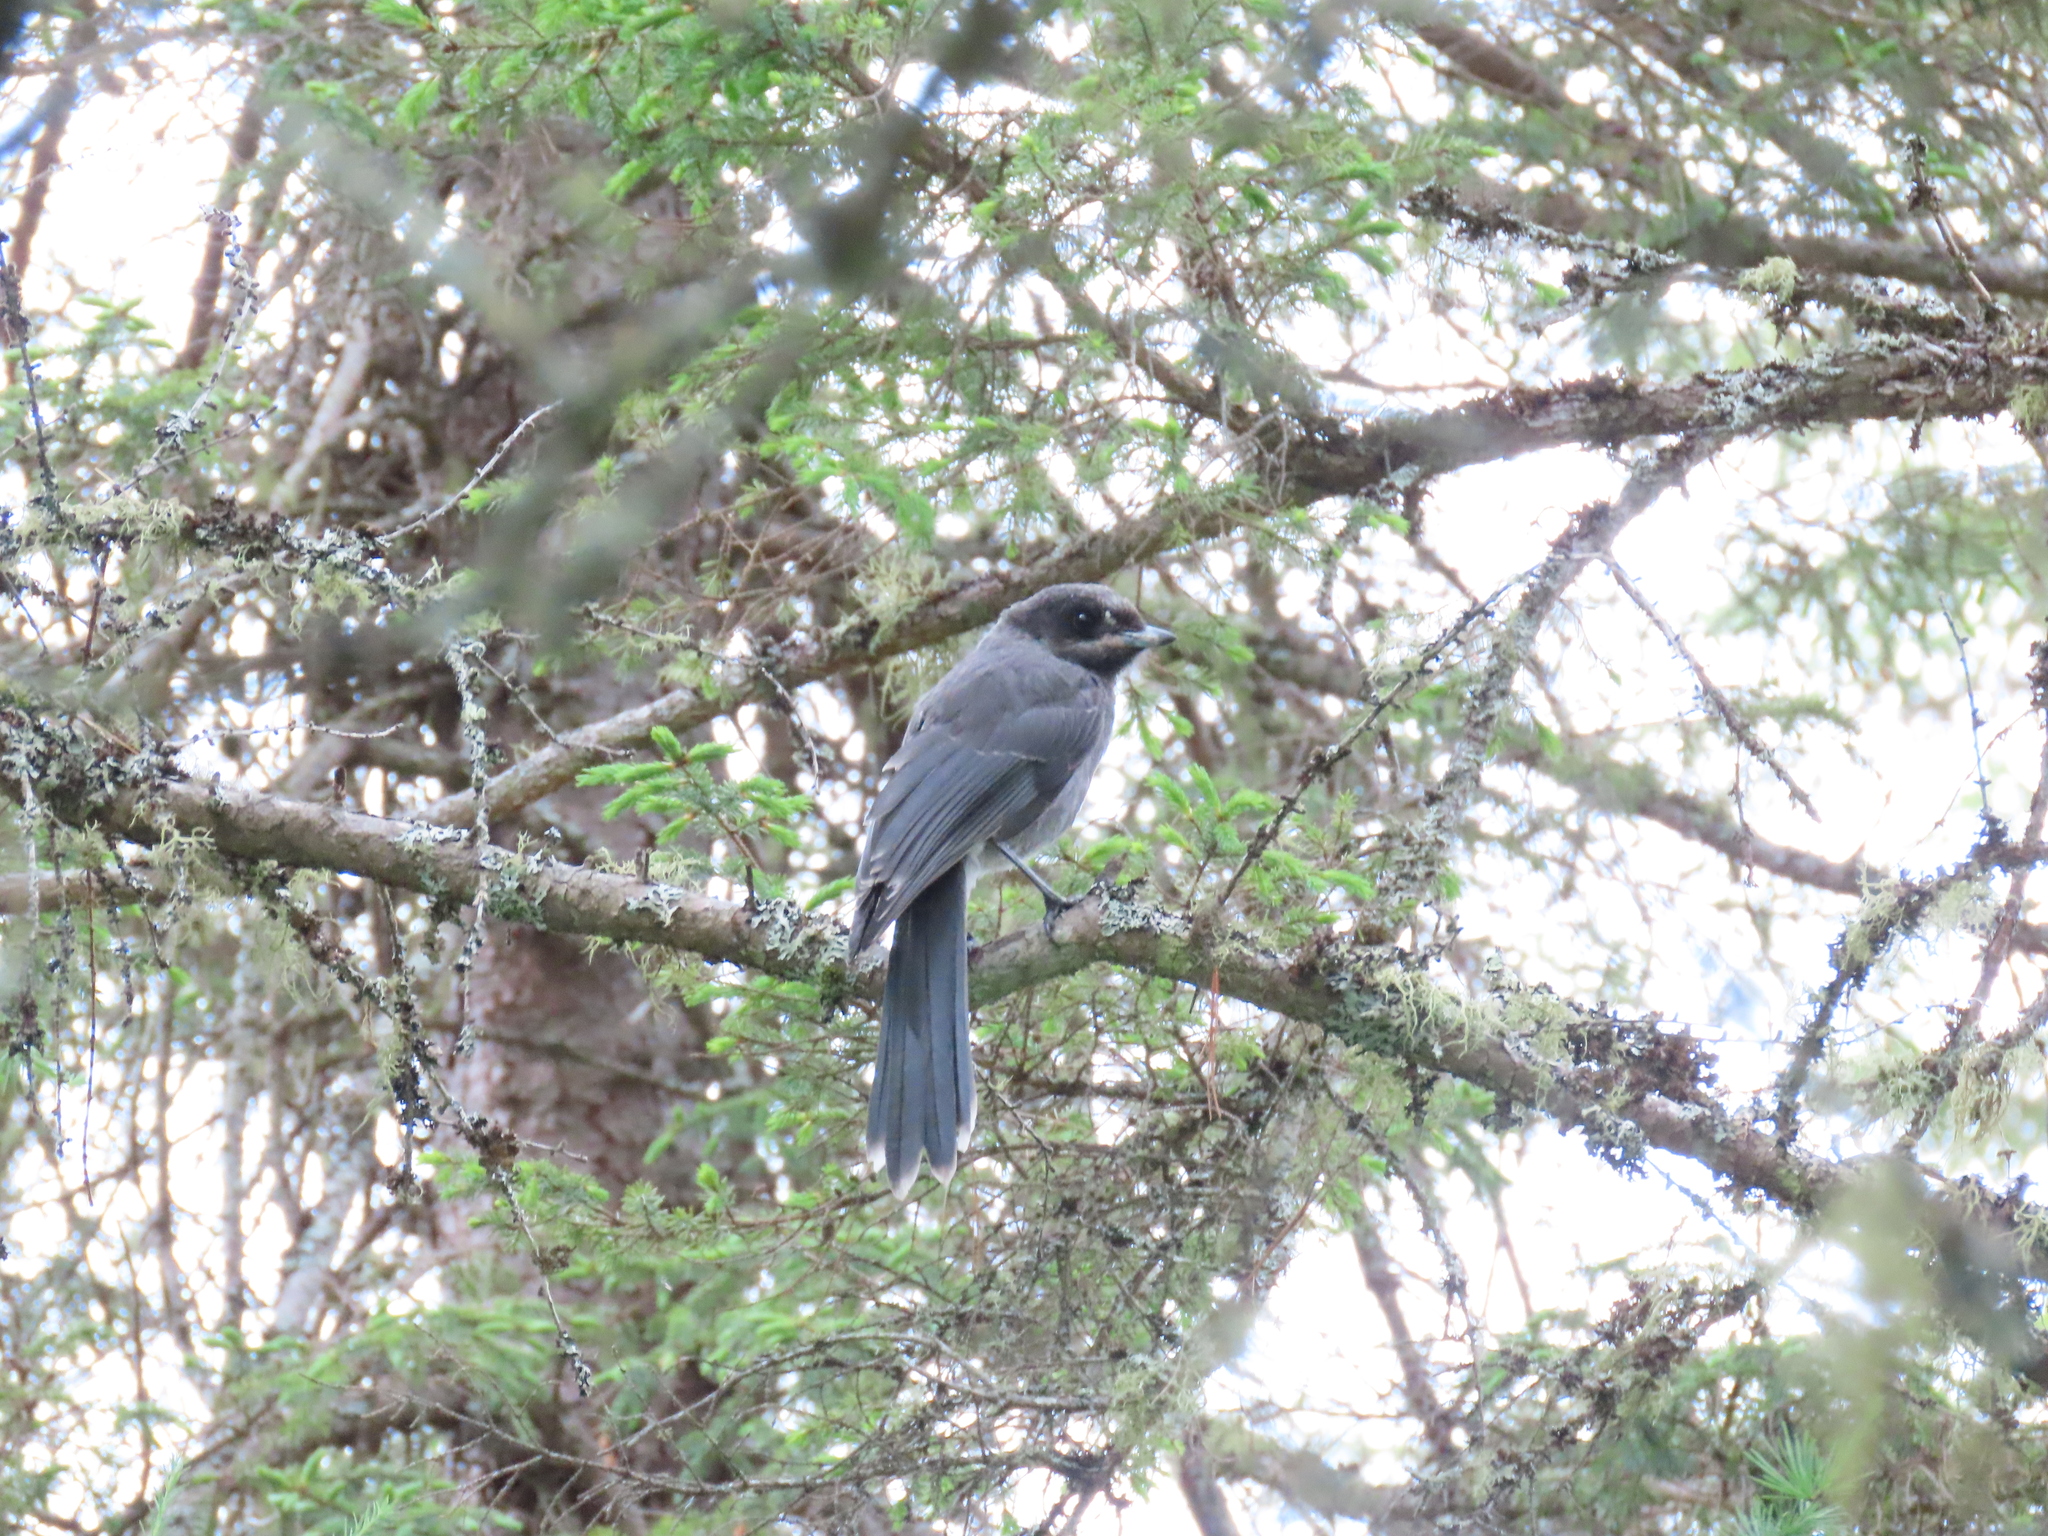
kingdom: Animalia
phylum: Chordata
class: Aves
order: Passeriformes
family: Corvidae
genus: Perisoreus
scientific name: Perisoreus canadensis
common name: Gray jay
